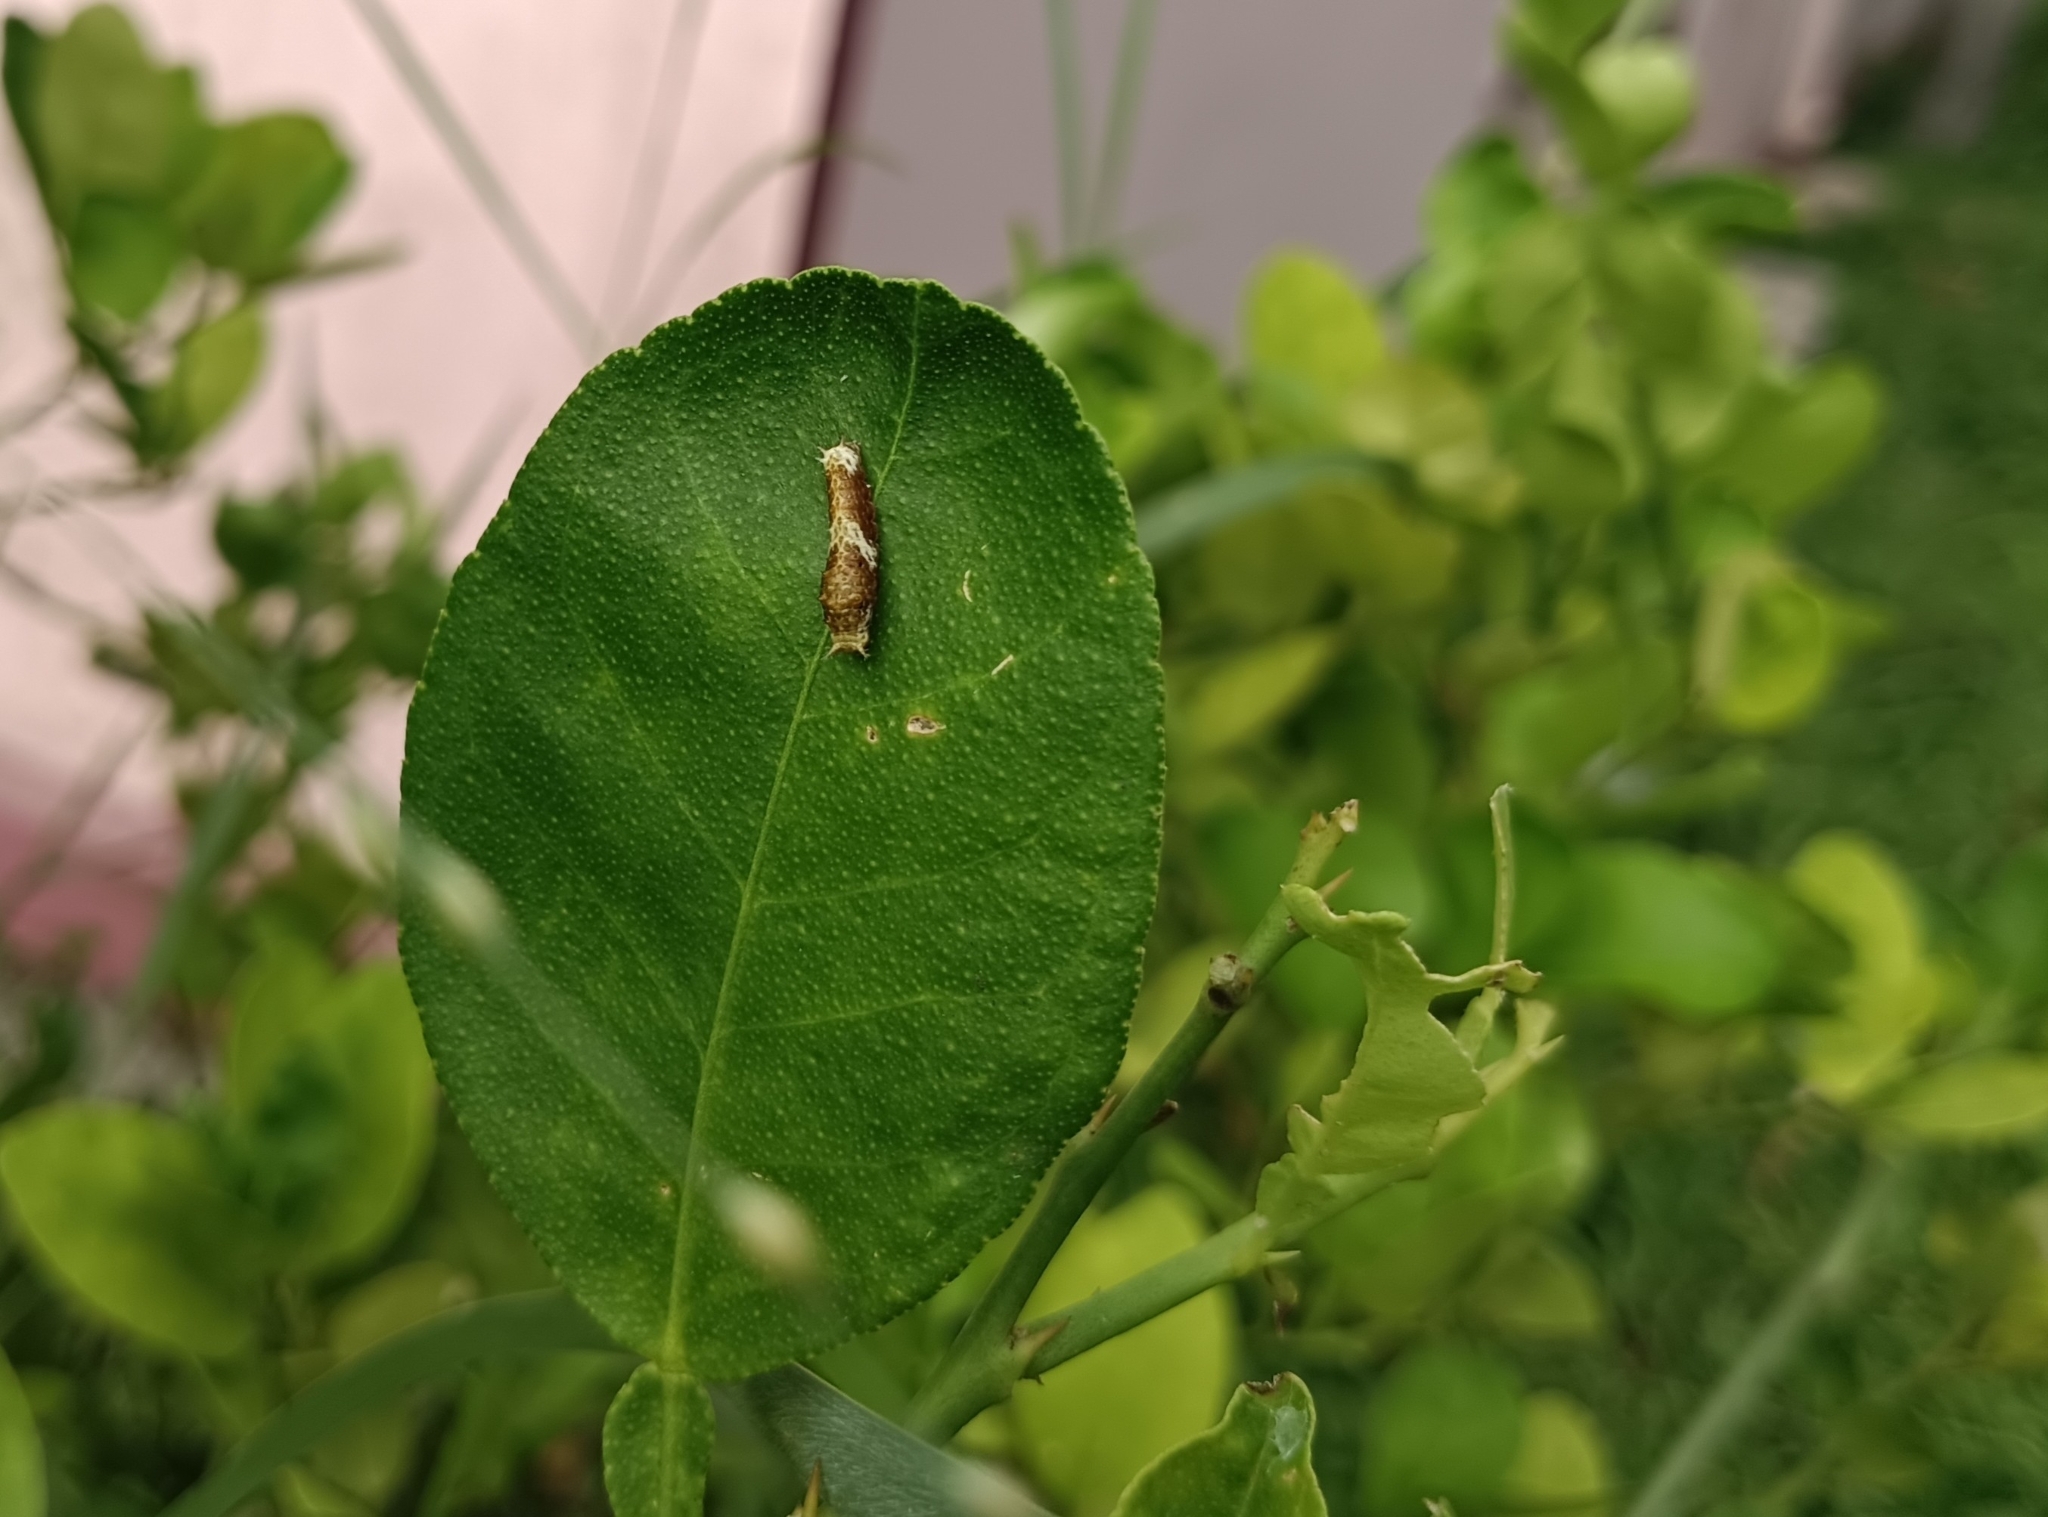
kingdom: Animalia
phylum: Arthropoda
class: Insecta
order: Lepidoptera
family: Papilionidae
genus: Papilio
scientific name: Papilio polytes
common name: Common mormon
